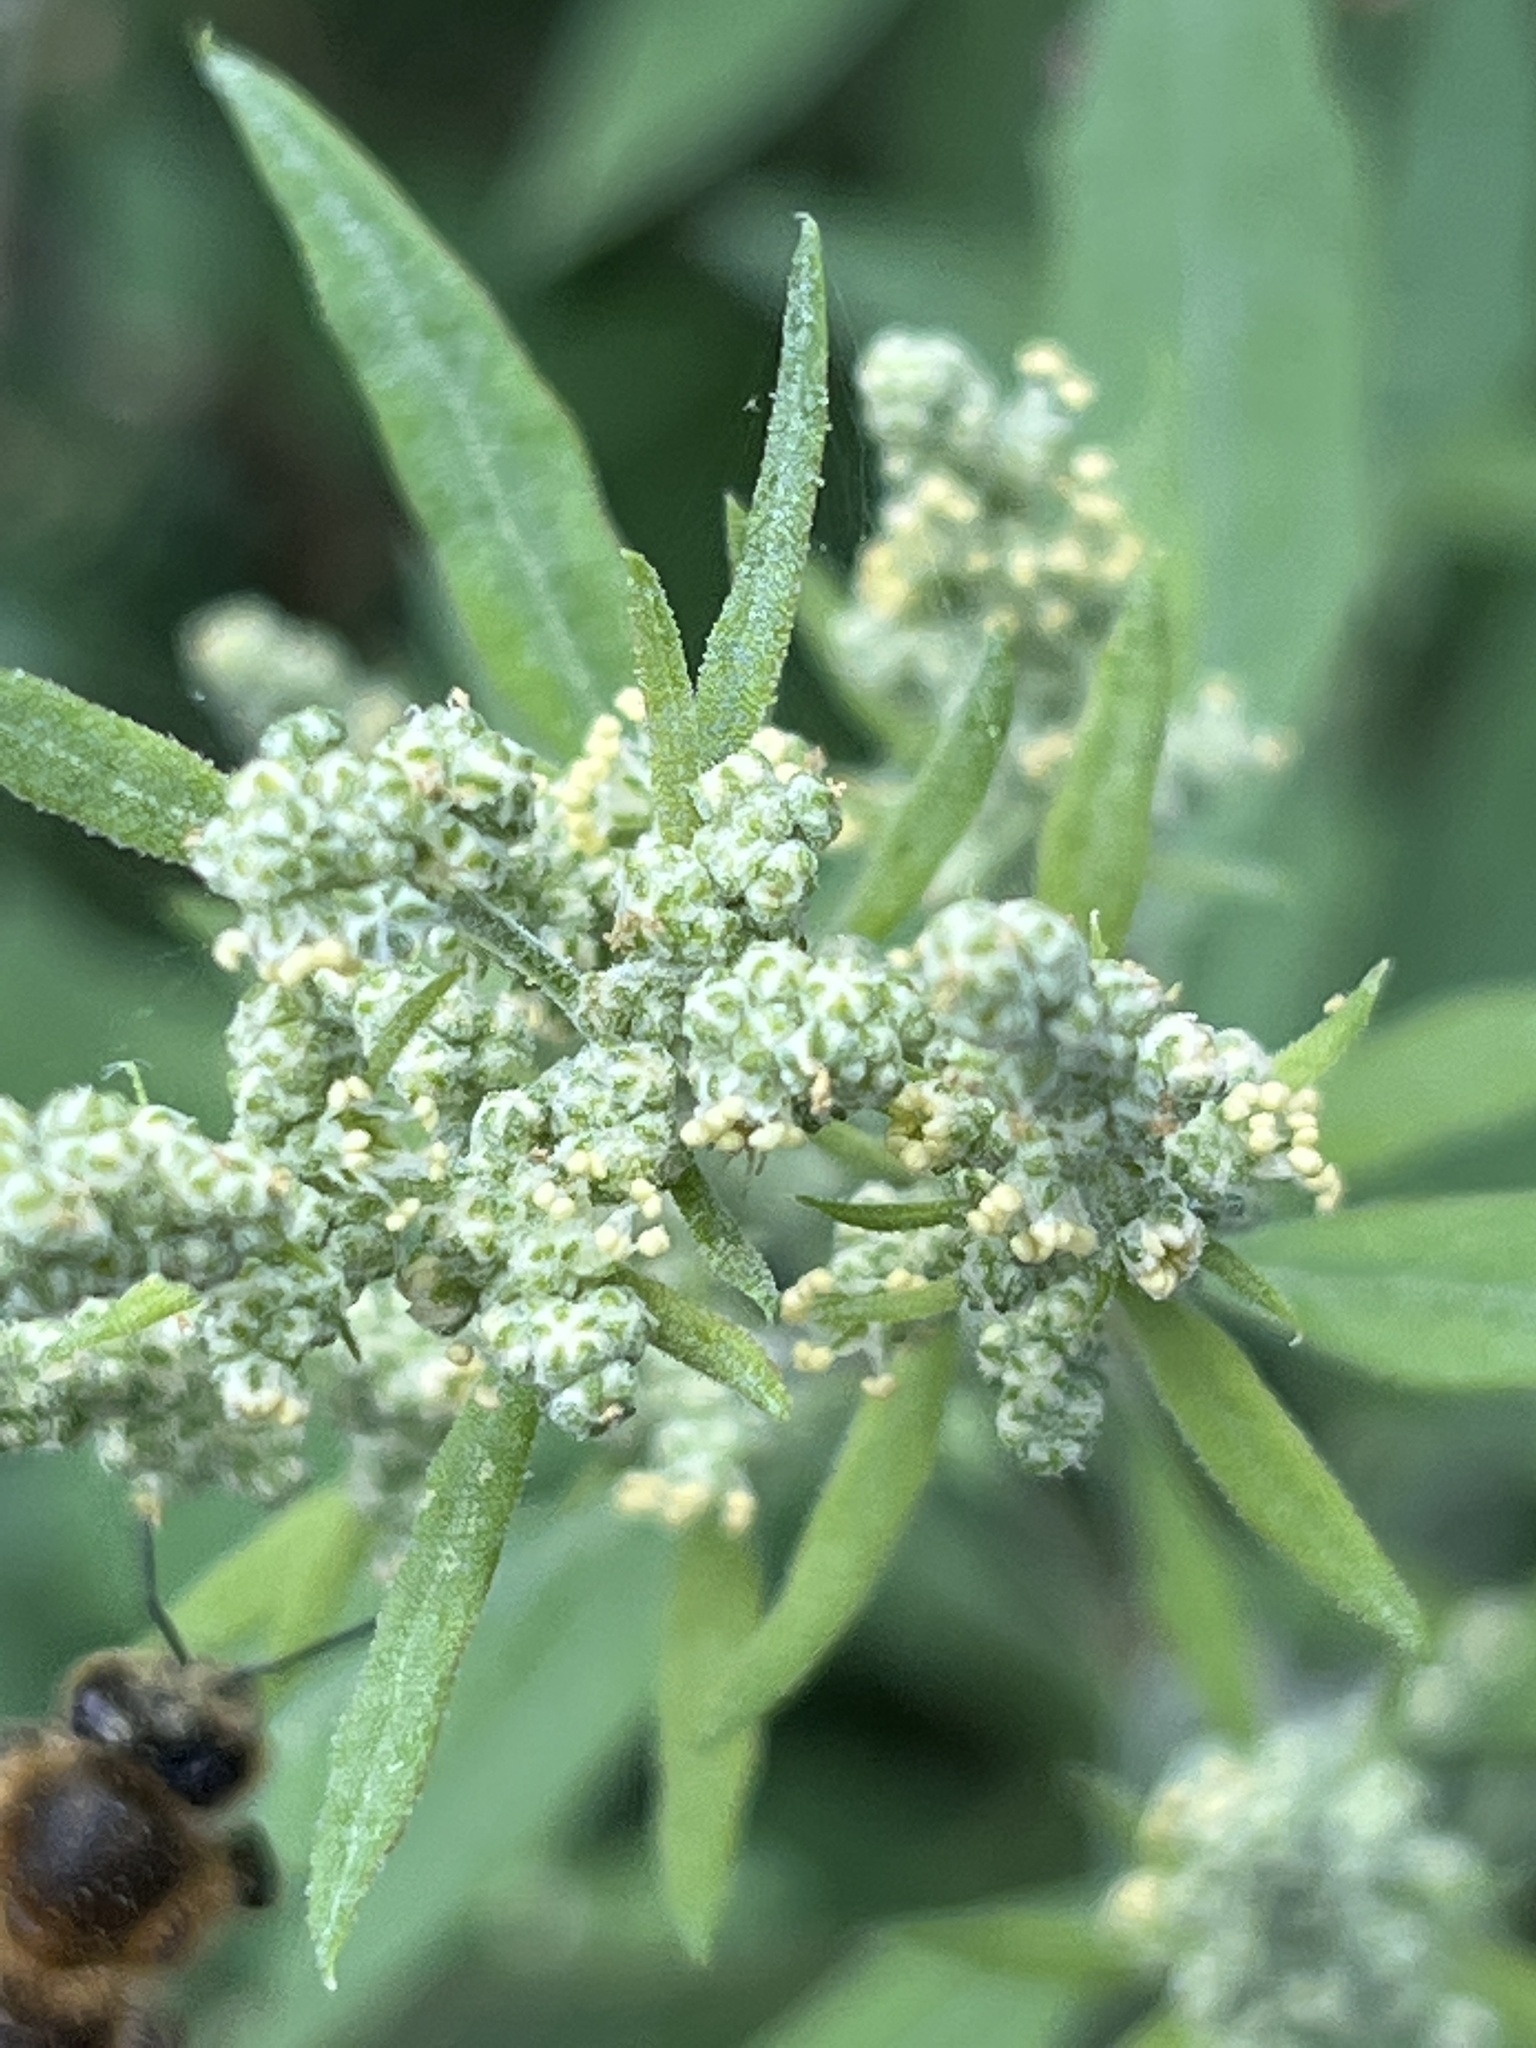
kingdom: Plantae
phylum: Tracheophyta
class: Magnoliopsida
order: Caryophyllales
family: Amaranthaceae
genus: Chenopodium
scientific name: Chenopodium album
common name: Fat-hen
